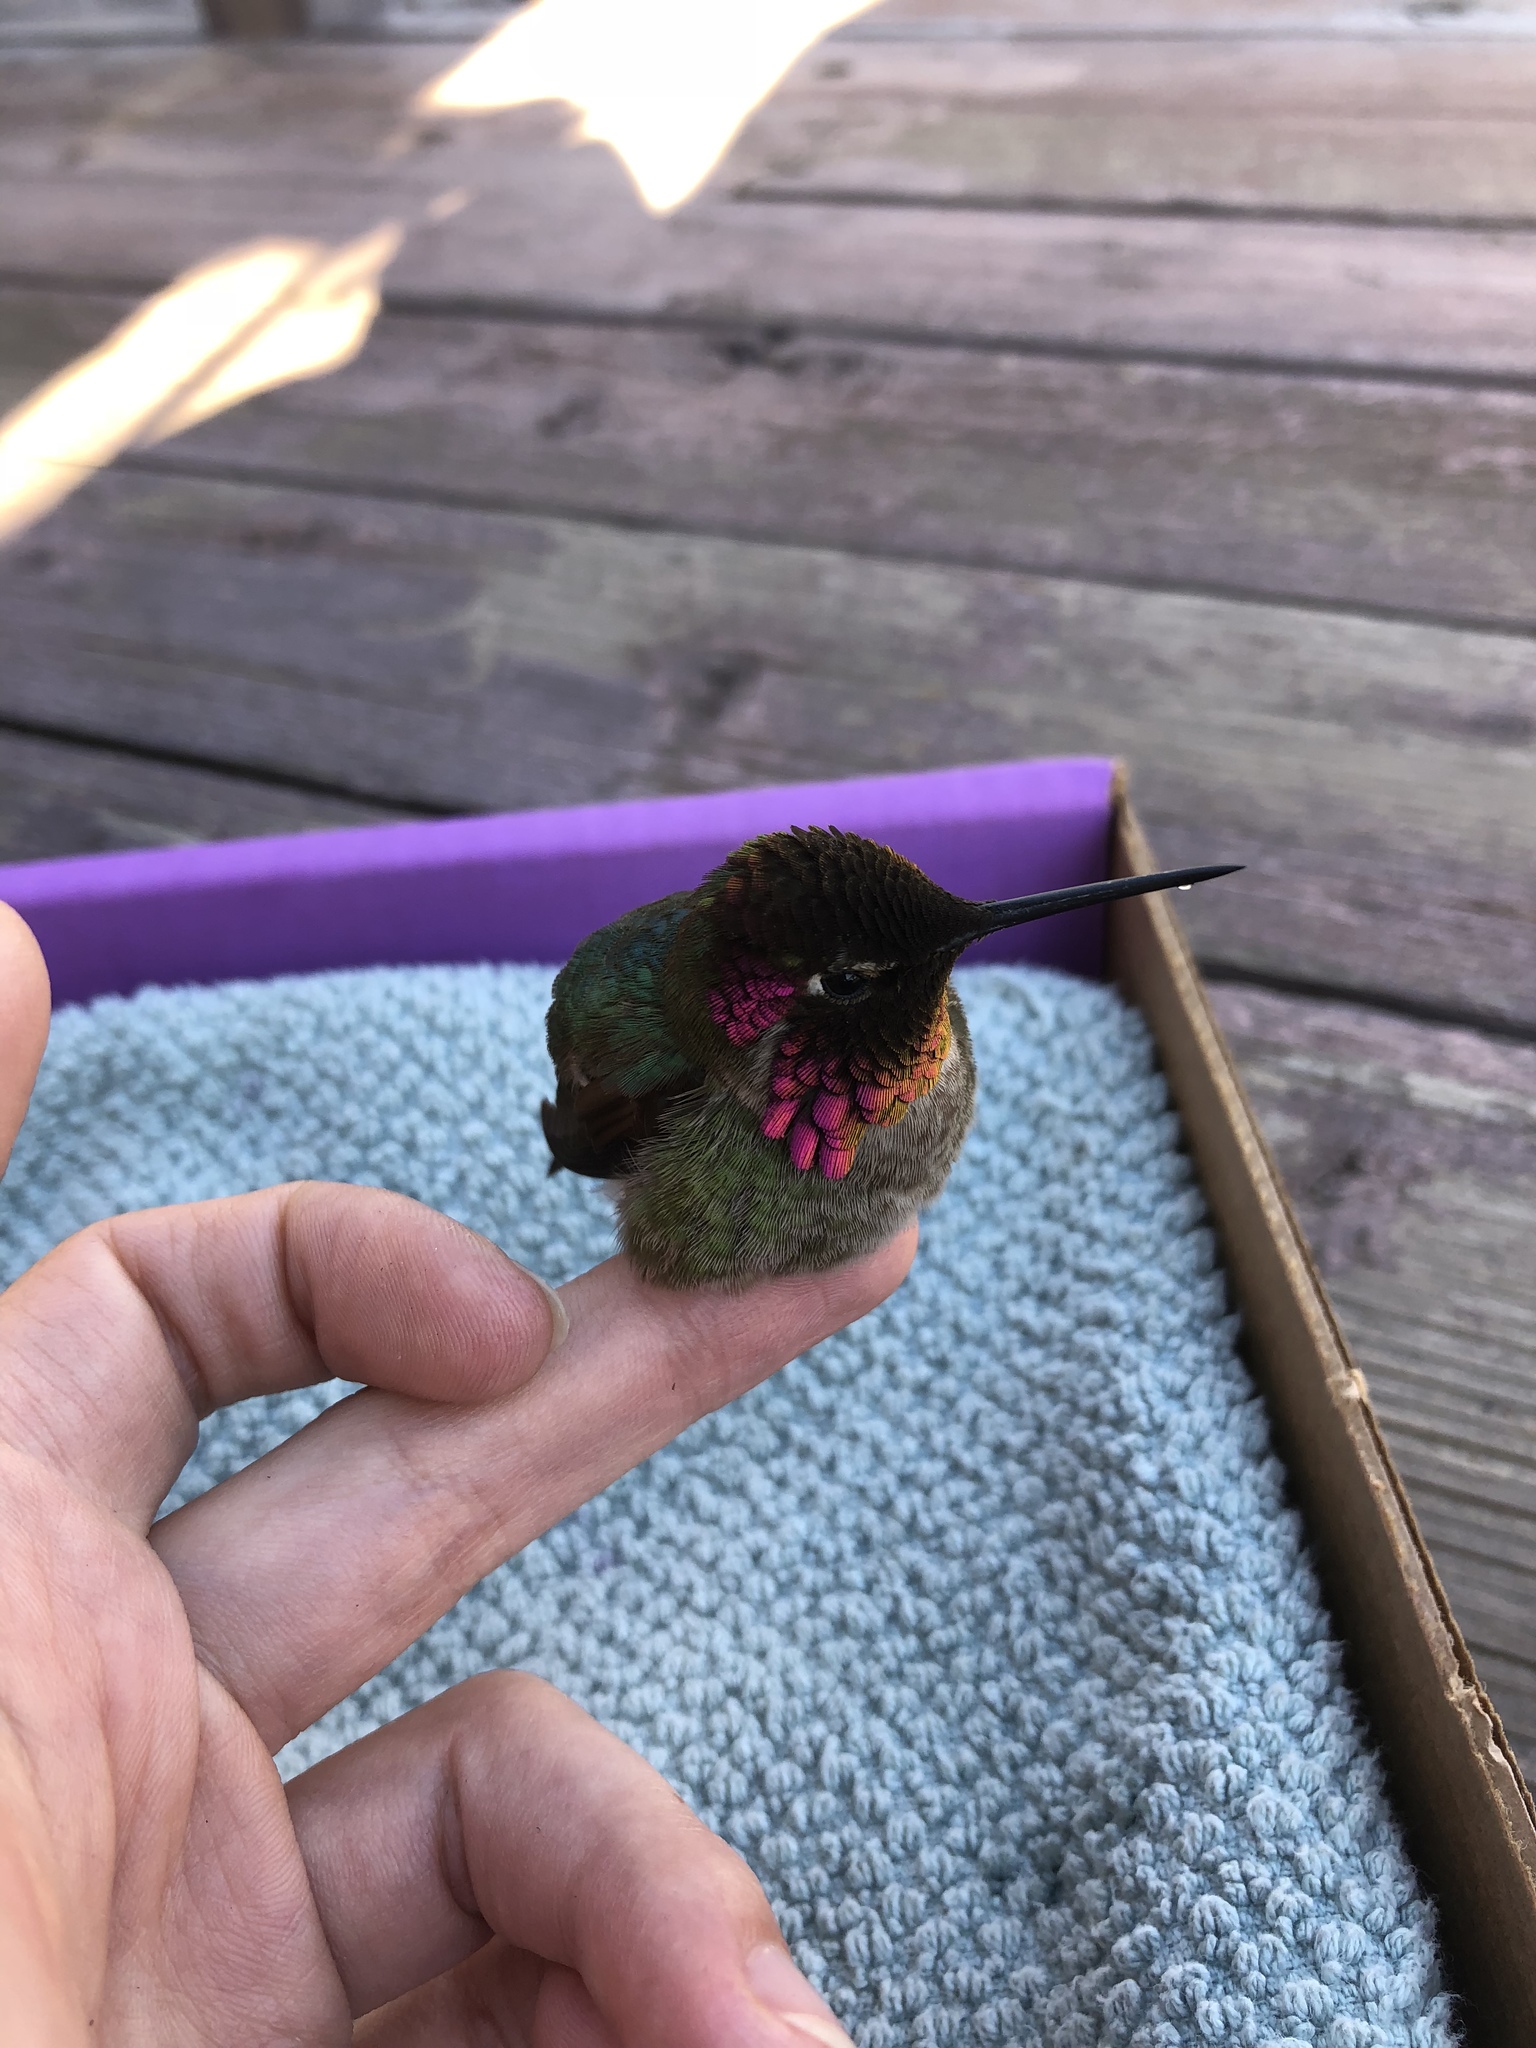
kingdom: Animalia
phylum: Chordata
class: Aves
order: Apodiformes
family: Trochilidae
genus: Calypte
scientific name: Calypte anna
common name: Anna's hummingbird
